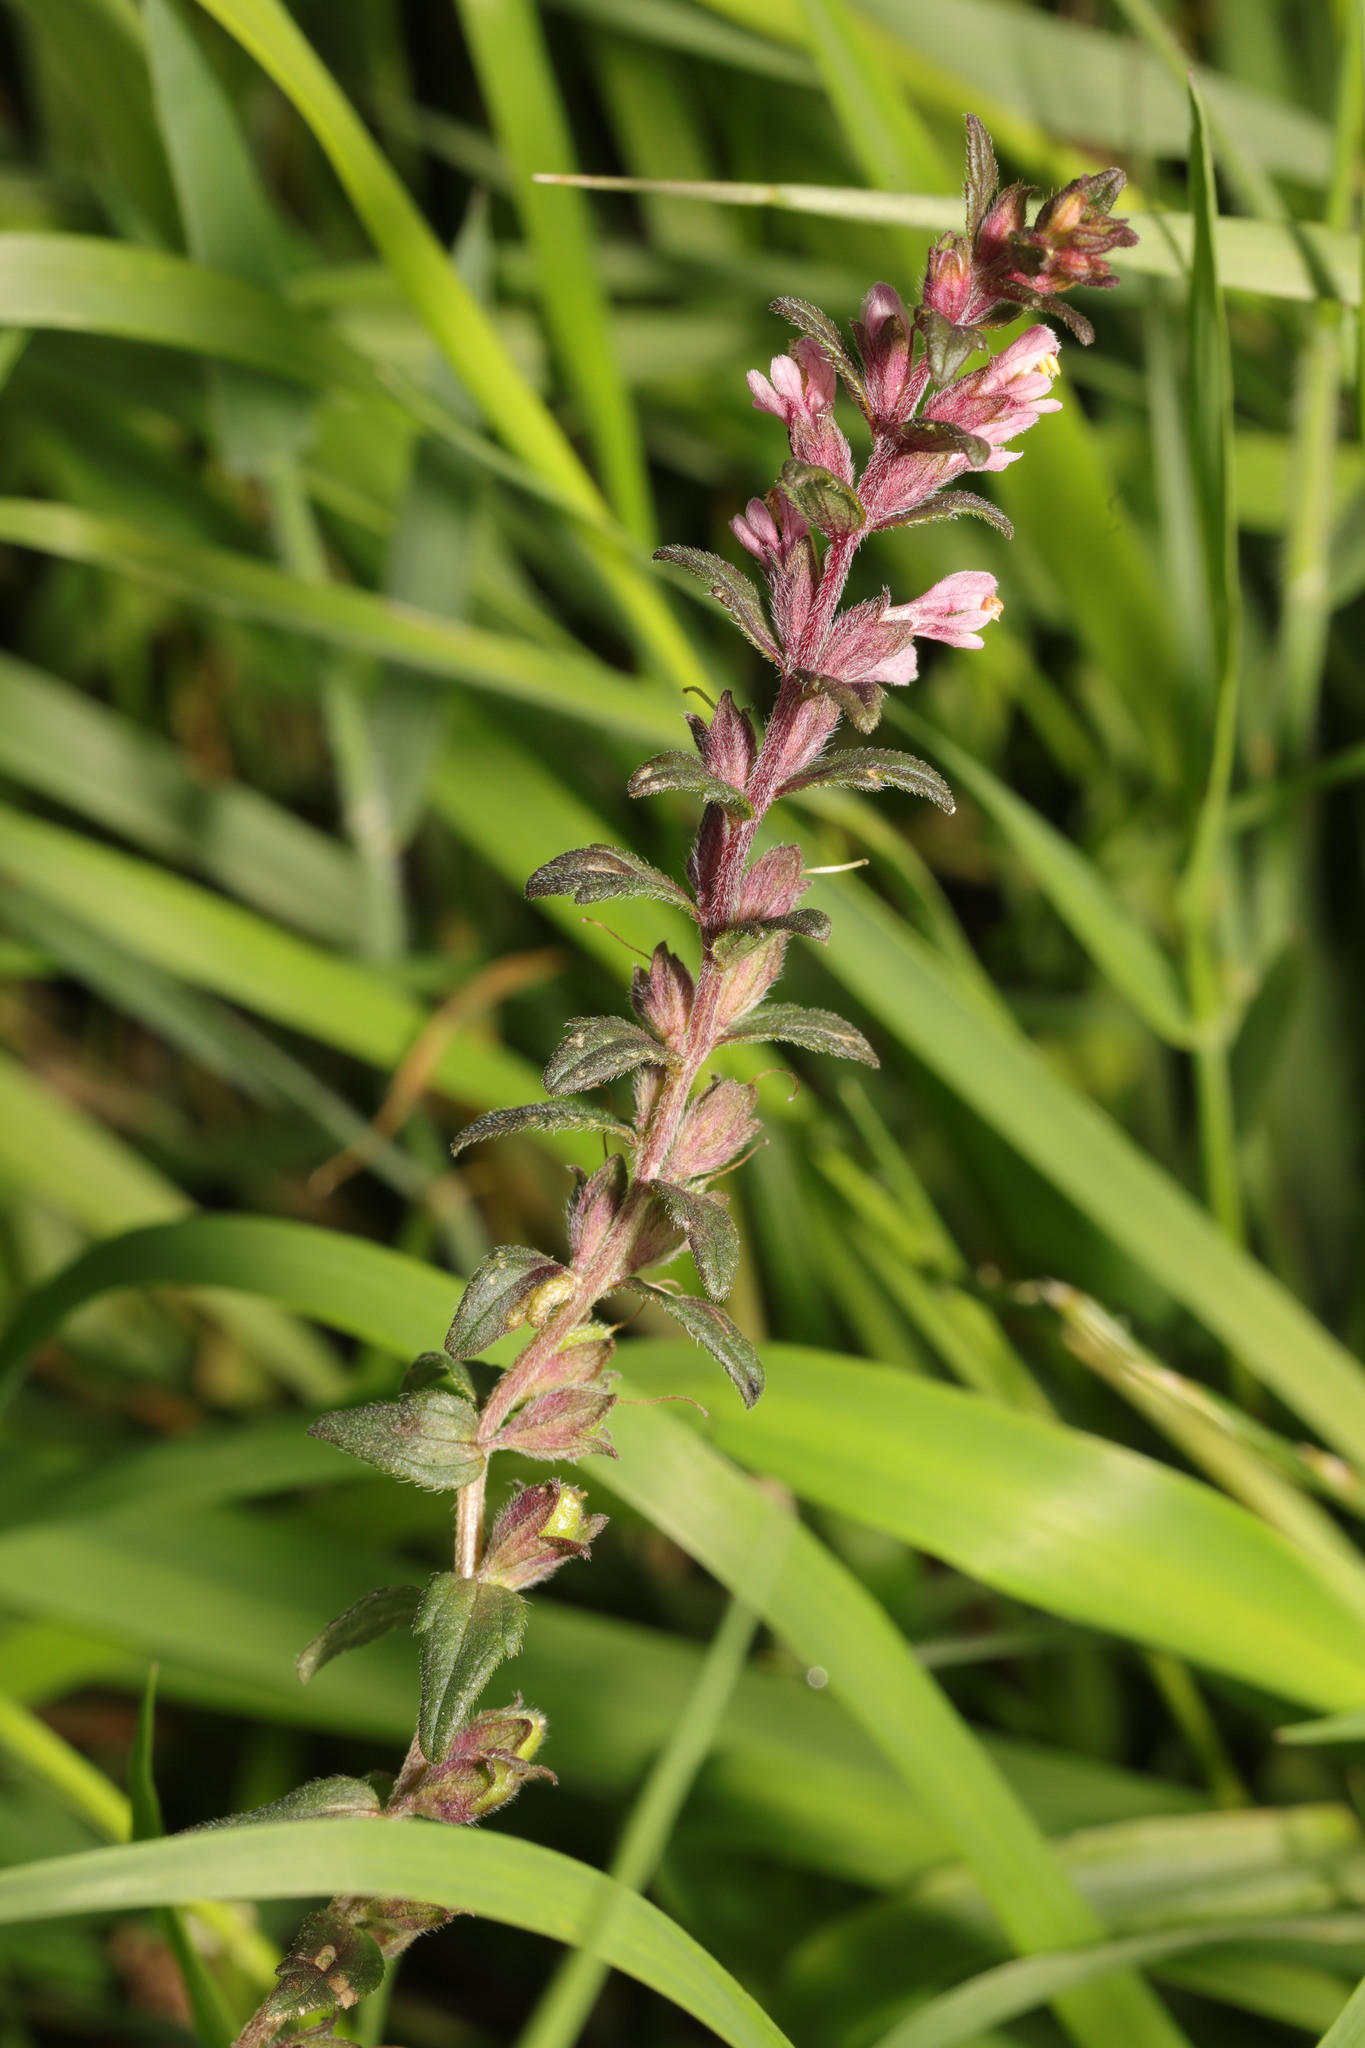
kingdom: Plantae
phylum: Tracheophyta
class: Magnoliopsida
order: Lamiales
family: Orobanchaceae
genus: Odontites
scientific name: Odontites vulgaris
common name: Broomrape
